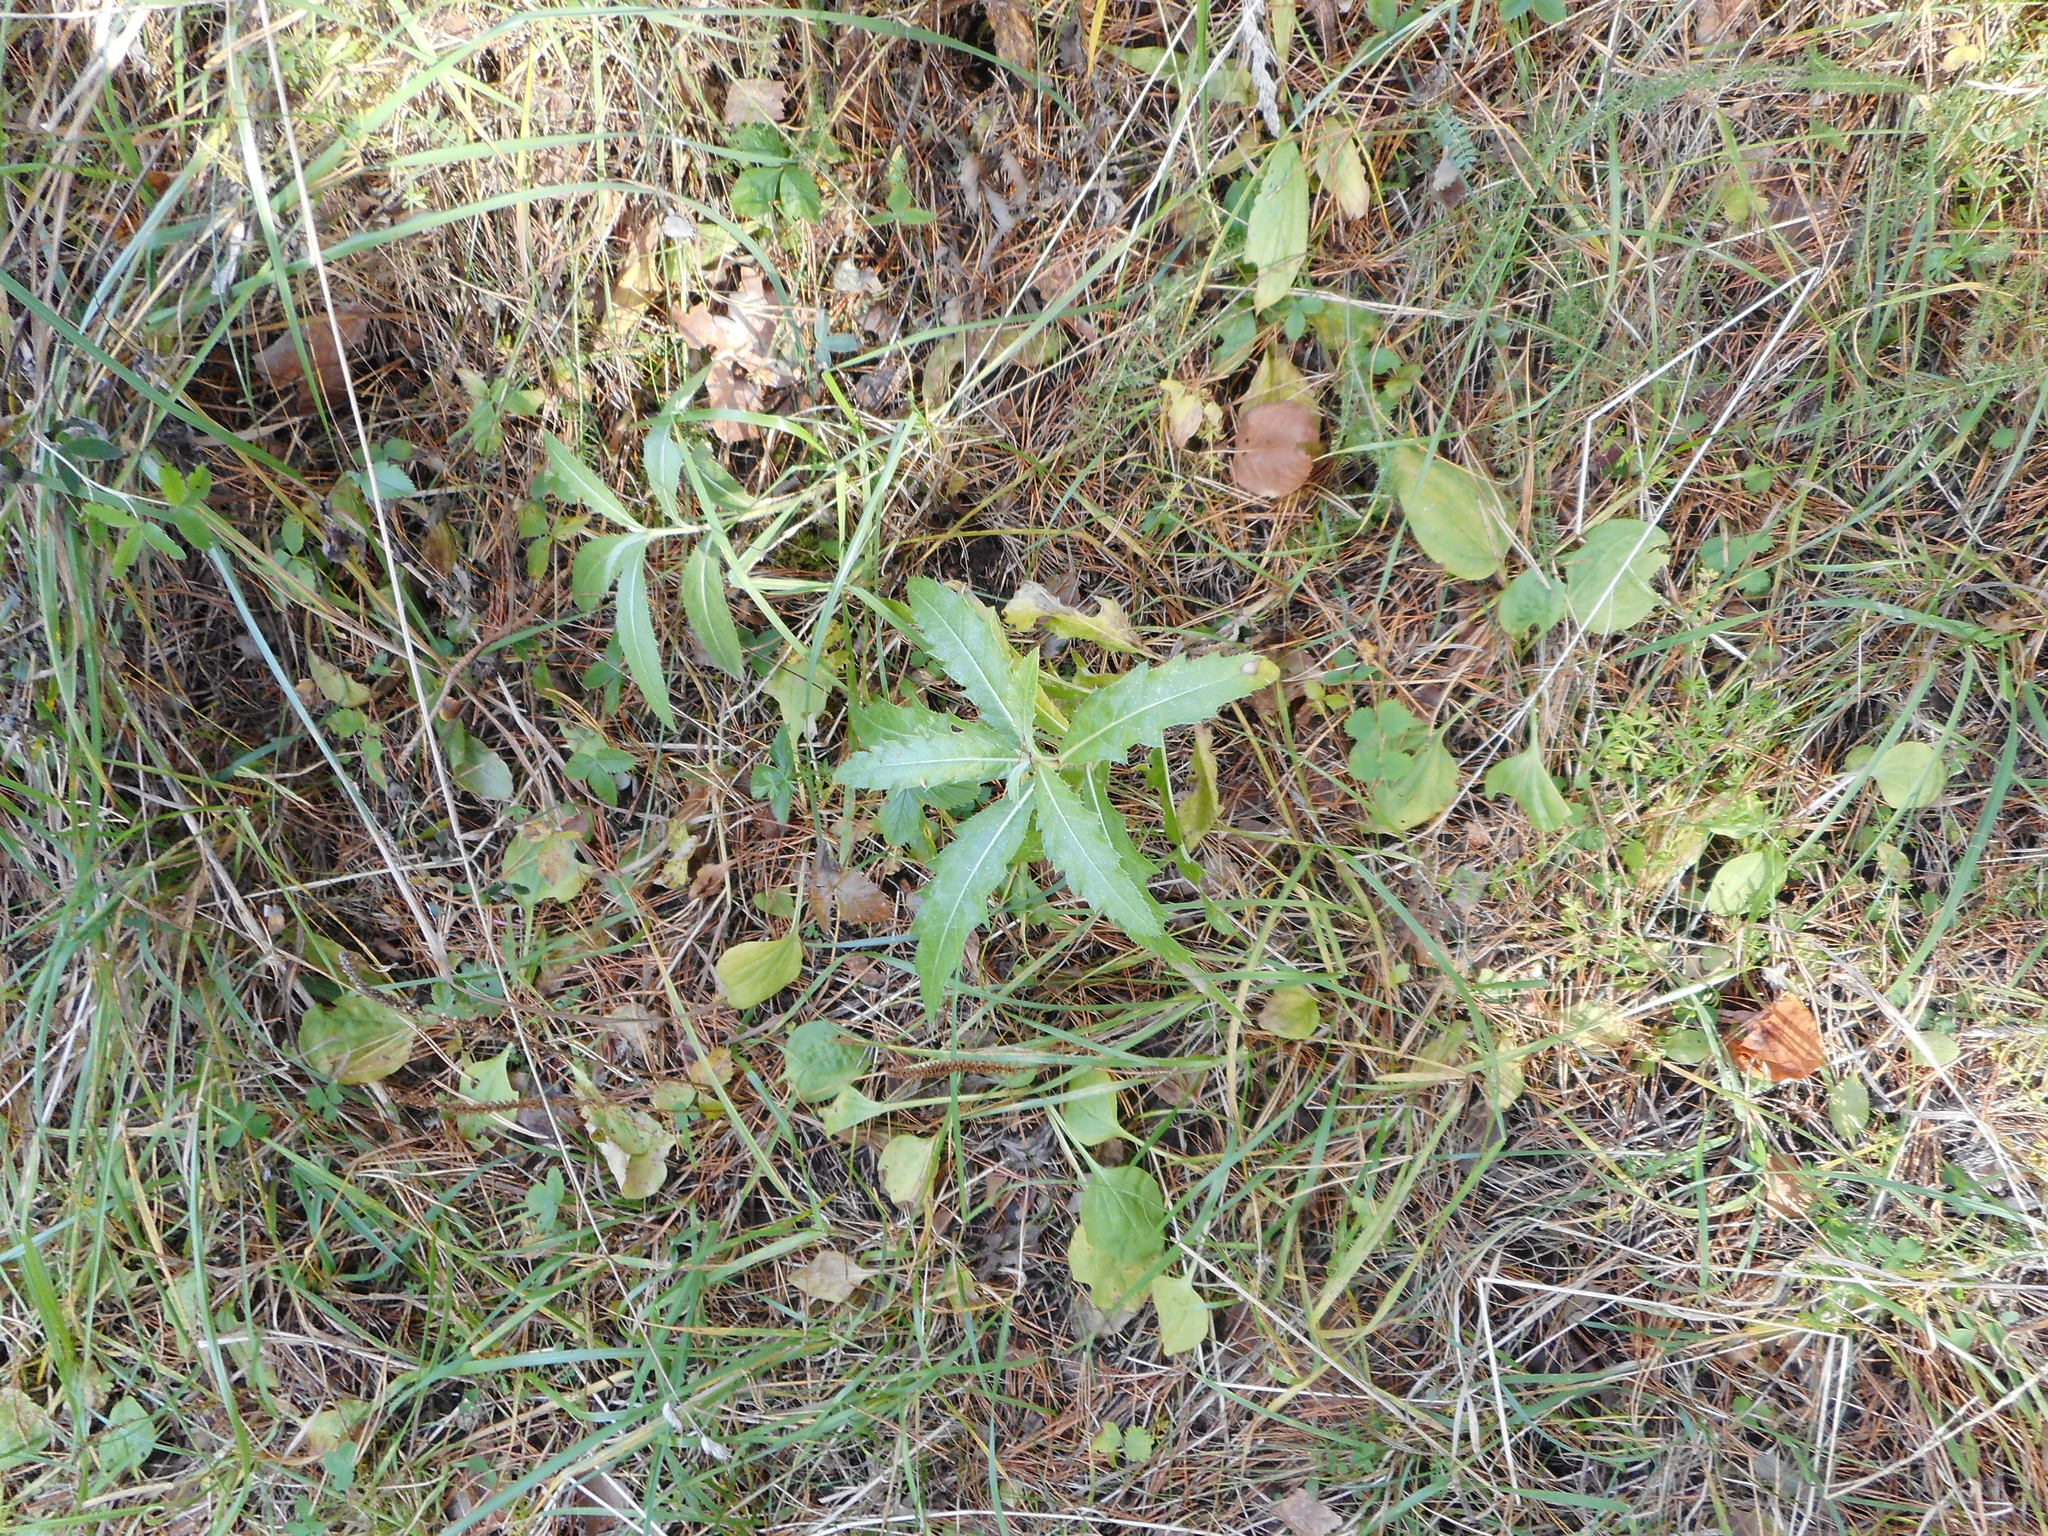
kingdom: Plantae
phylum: Tracheophyta
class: Magnoliopsida
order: Asterales
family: Asteraceae
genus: Cirsium
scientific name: Cirsium arvense
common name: Creeping thistle
